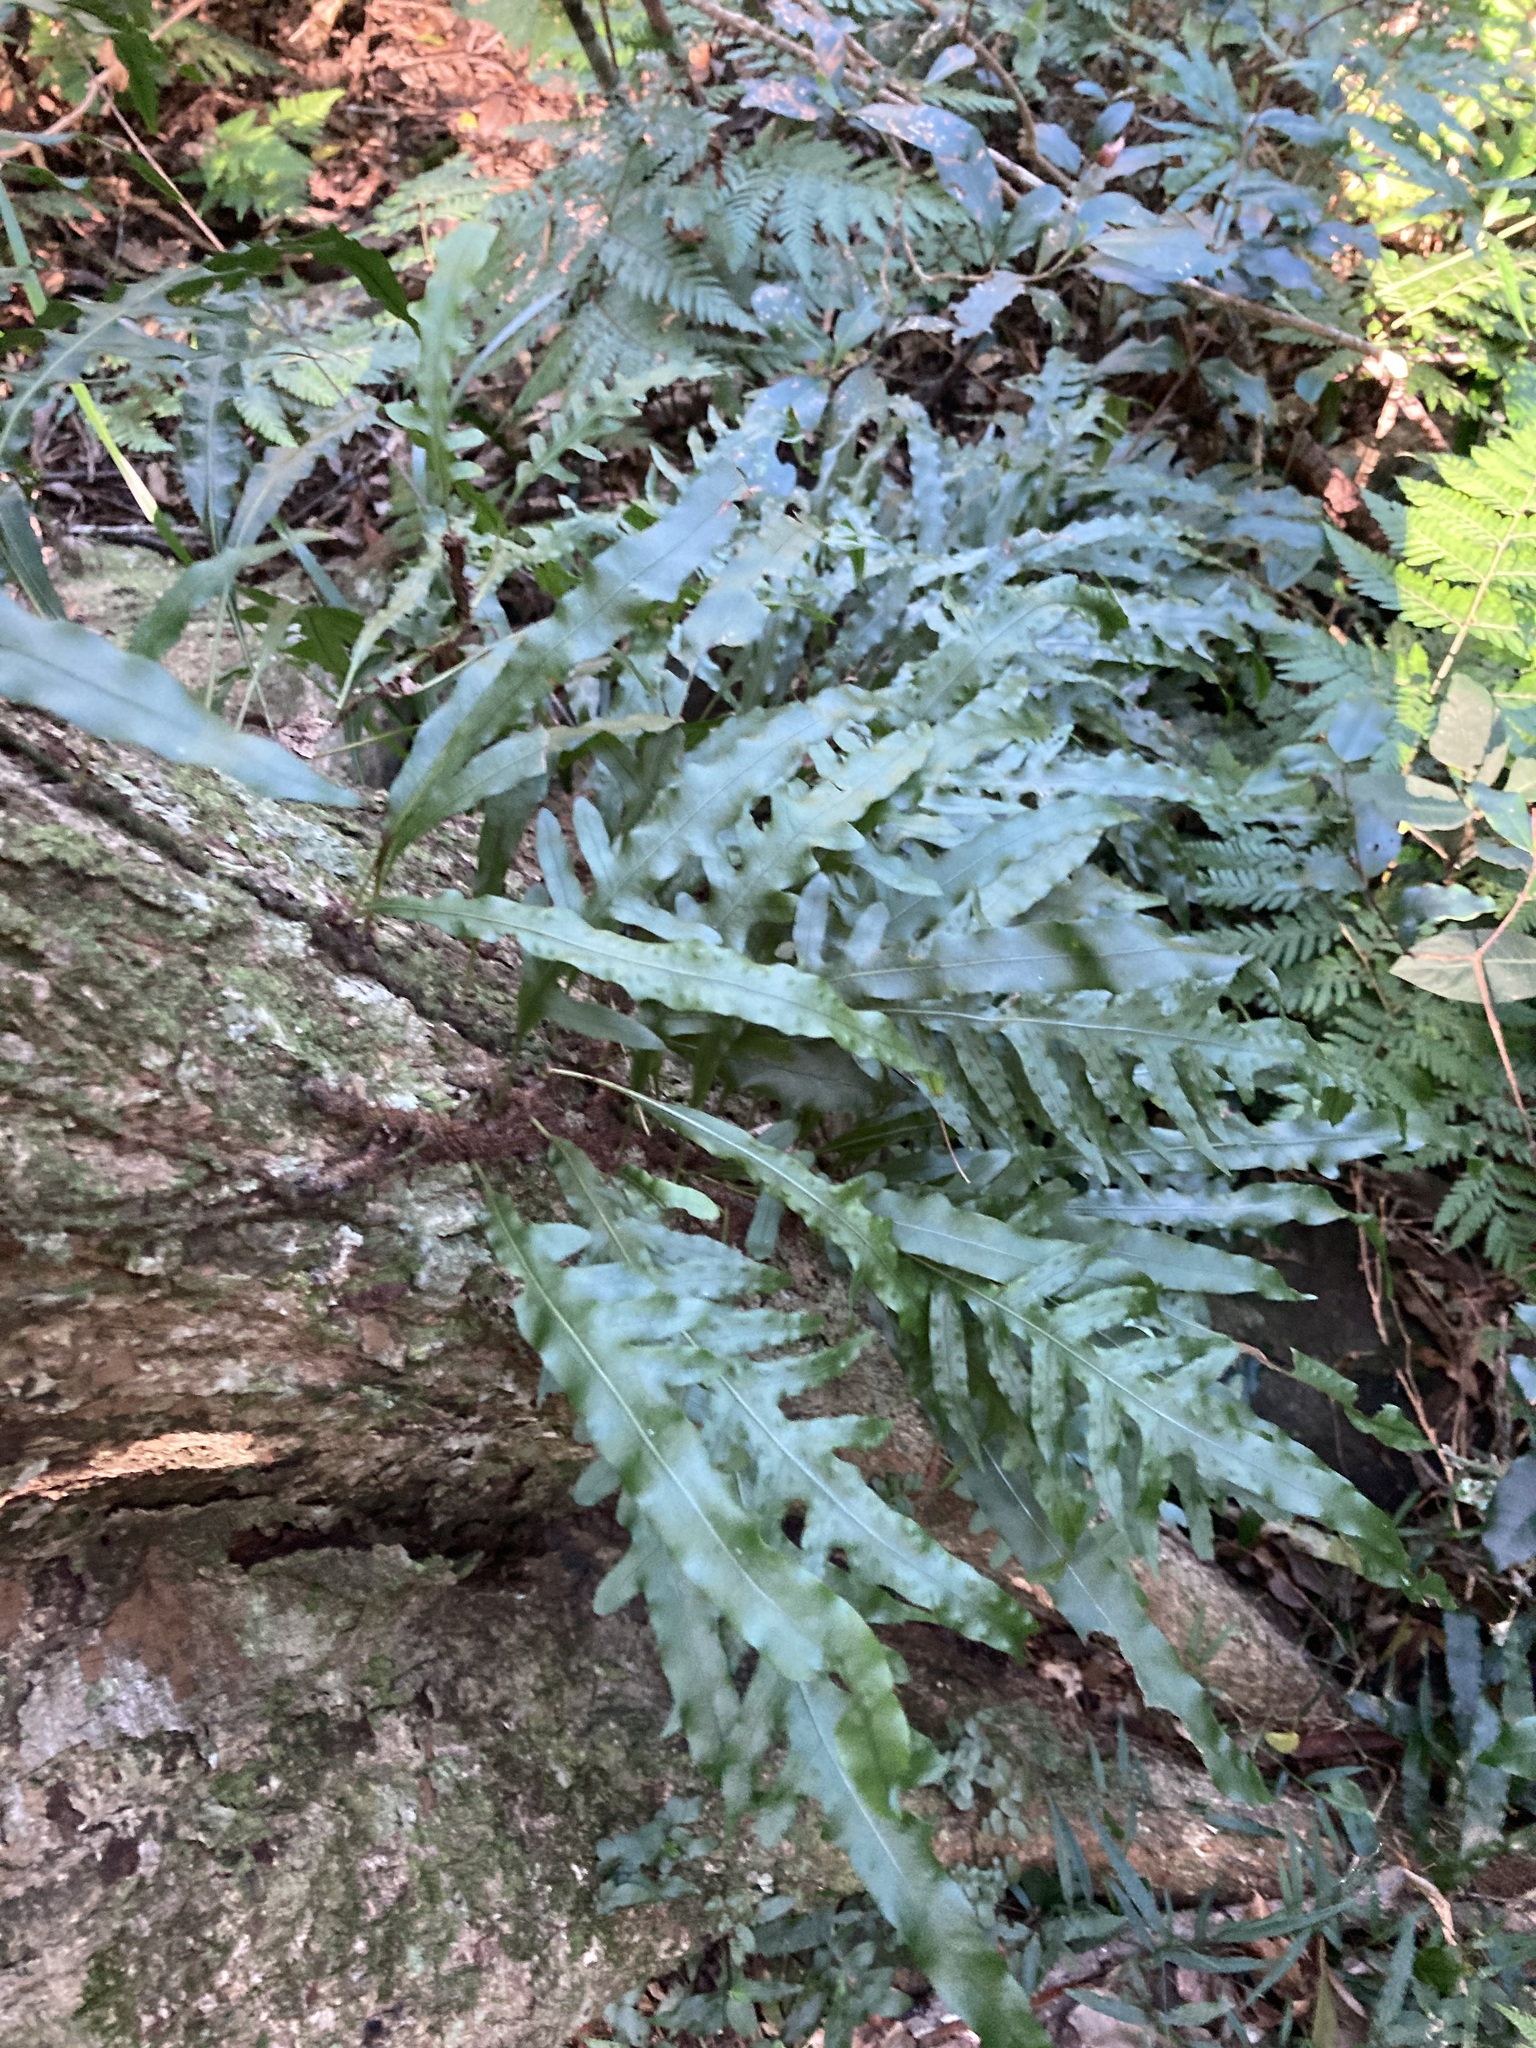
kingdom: Plantae
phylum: Tracheophyta
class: Polypodiopsida
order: Polypodiales
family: Polypodiaceae
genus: Lecanopteris
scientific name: Lecanopteris scandens
